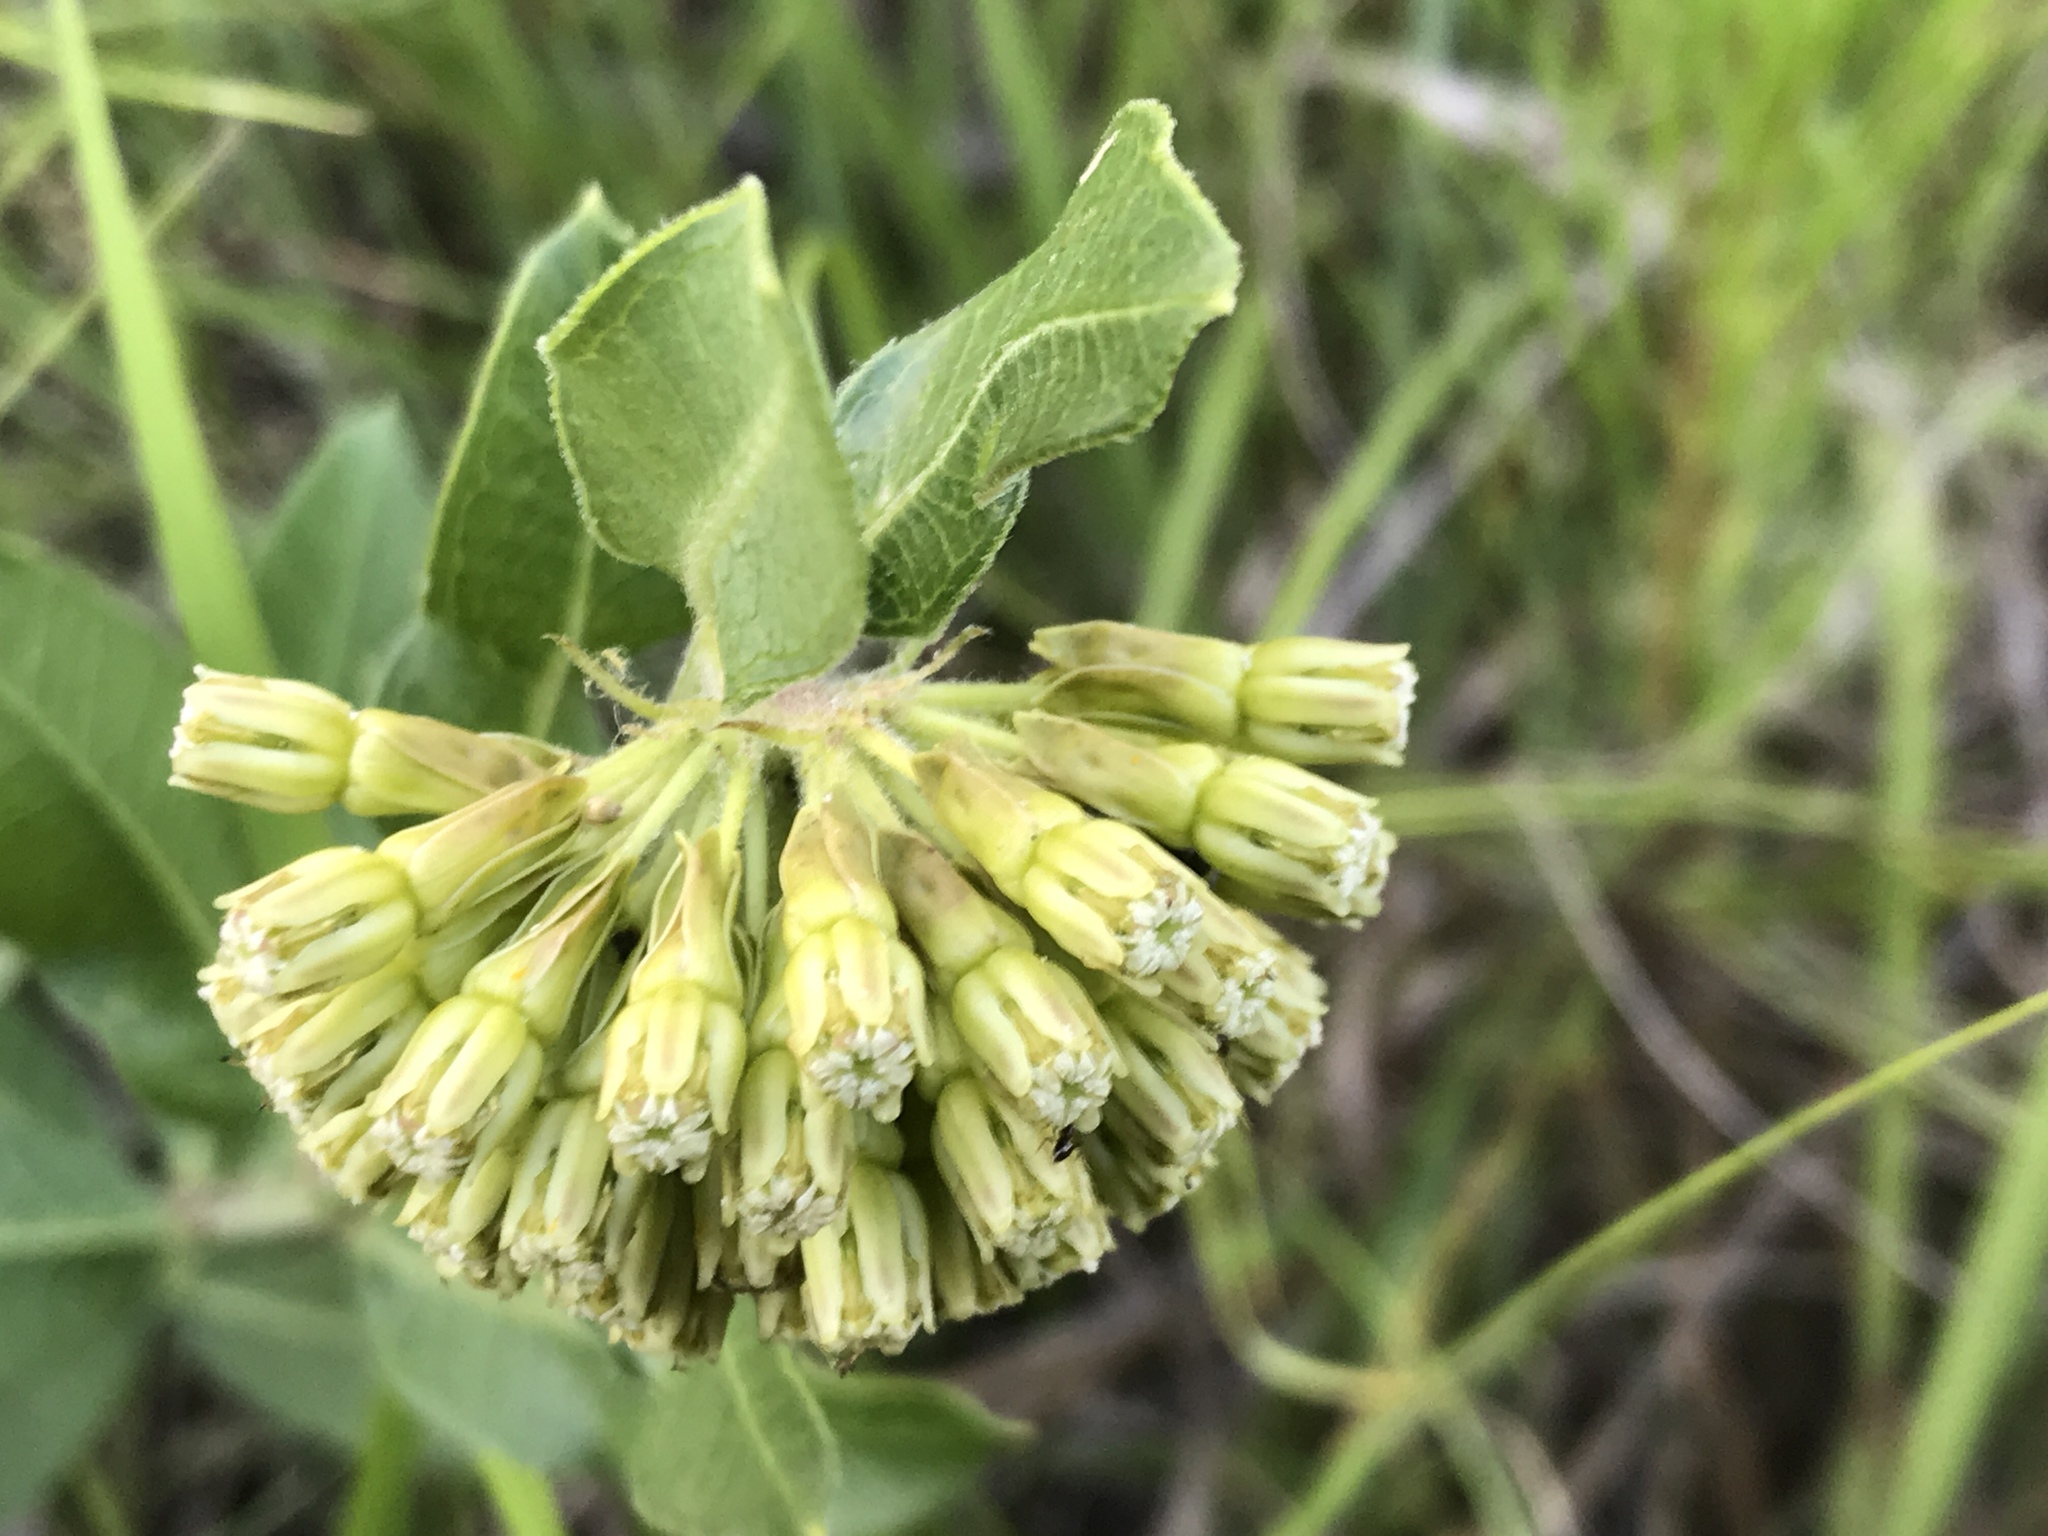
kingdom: Plantae
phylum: Tracheophyta
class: Magnoliopsida
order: Gentianales
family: Apocynaceae
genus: Asclepias
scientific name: Asclepias viridiflora
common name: Green comet milkweed
